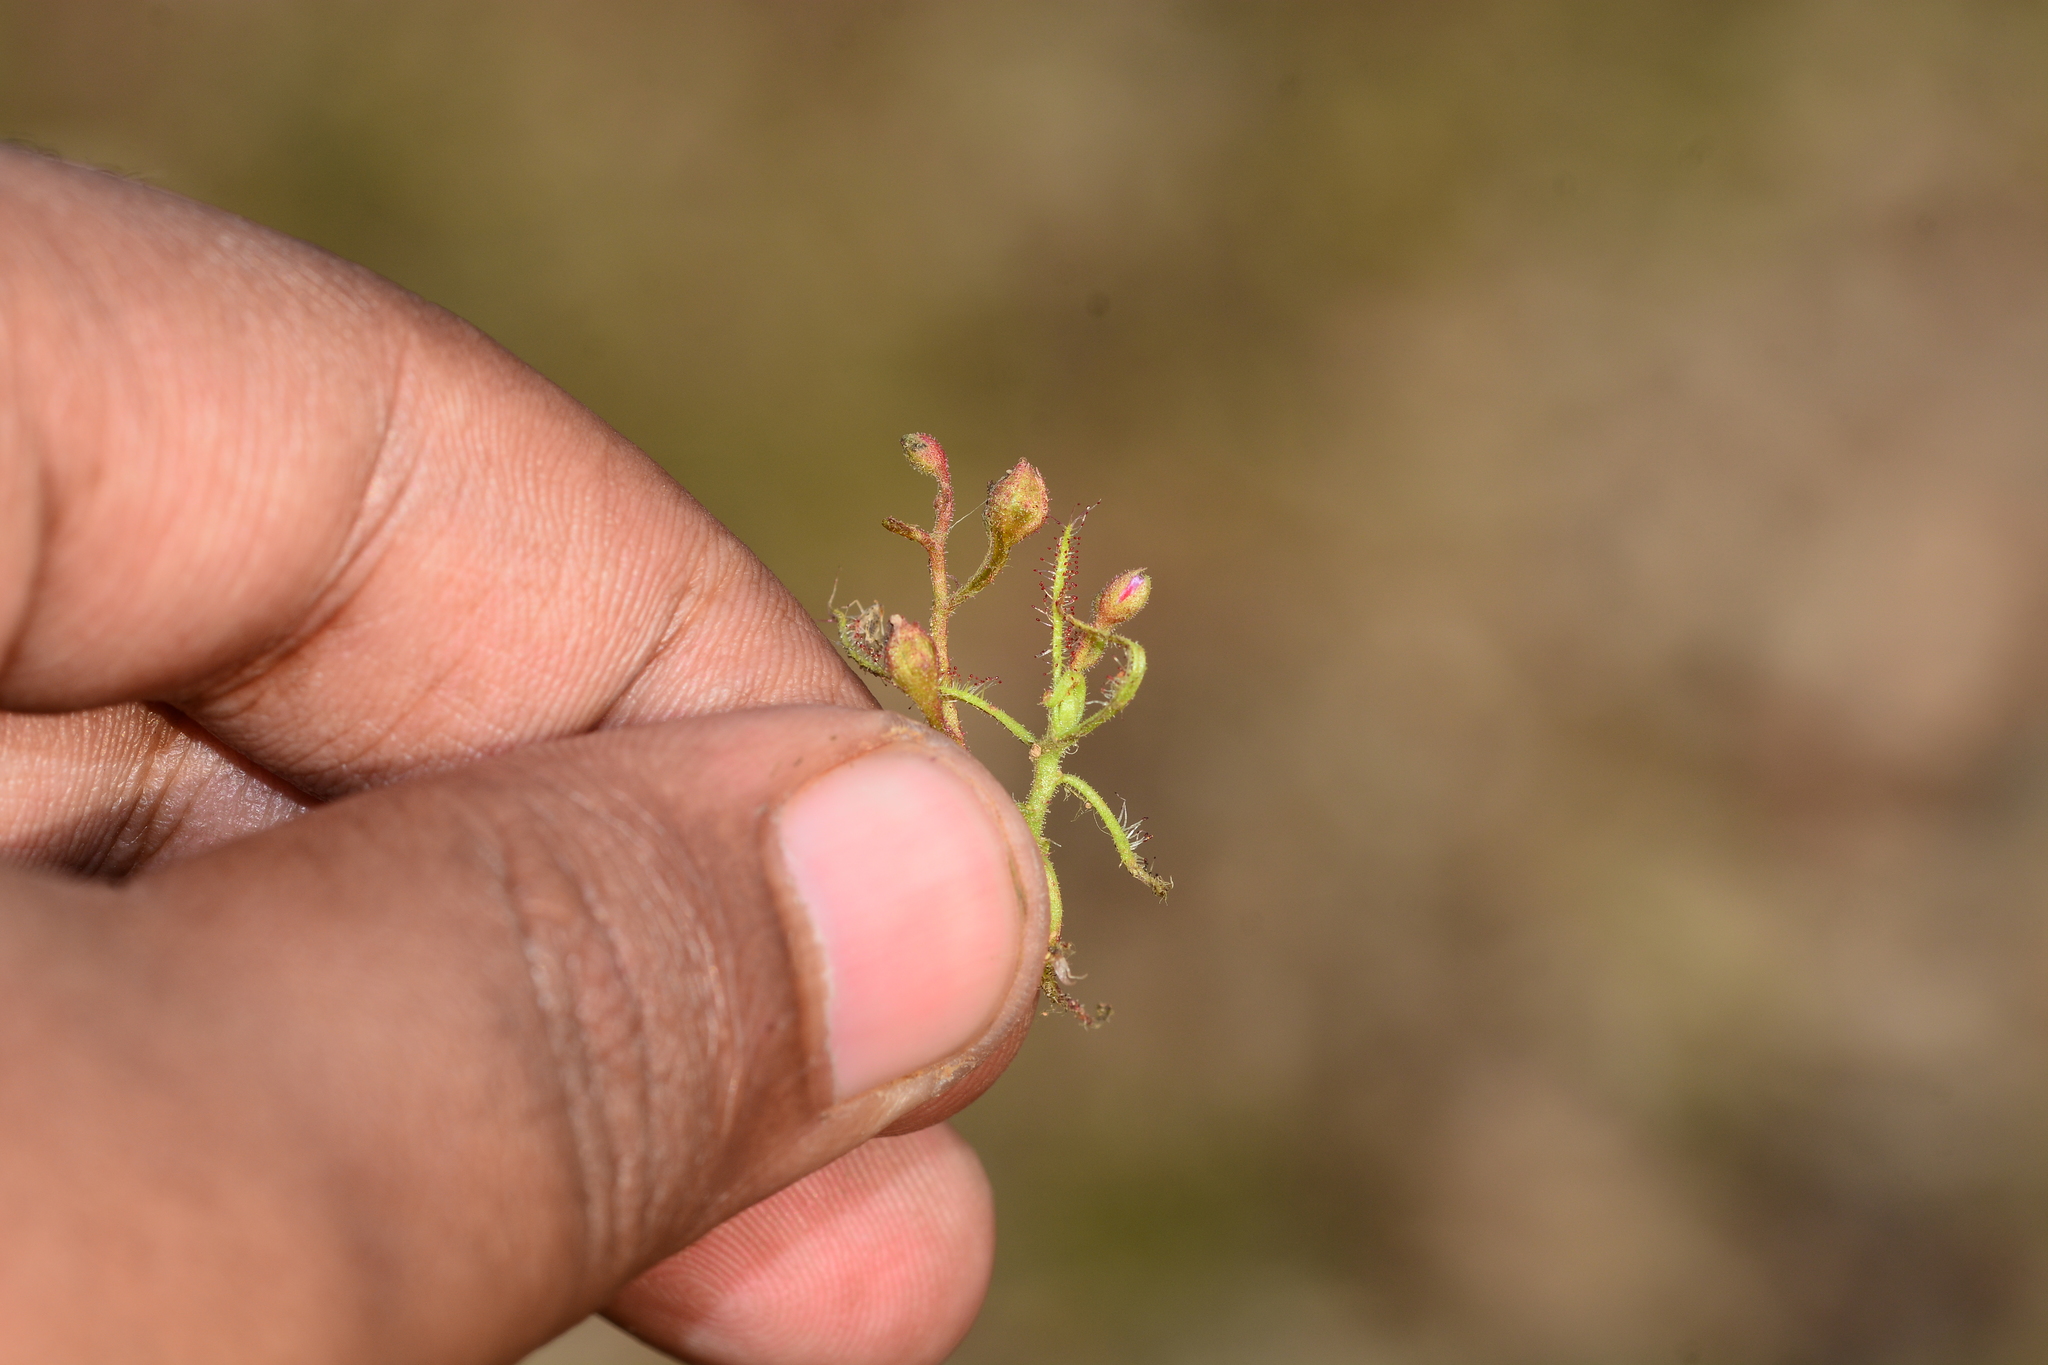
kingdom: Plantae
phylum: Tracheophyta
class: Magnoliopsida
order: Caryophyllales
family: Droseraceae
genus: Drosera
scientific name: Drosera indica
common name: Indian sundew
